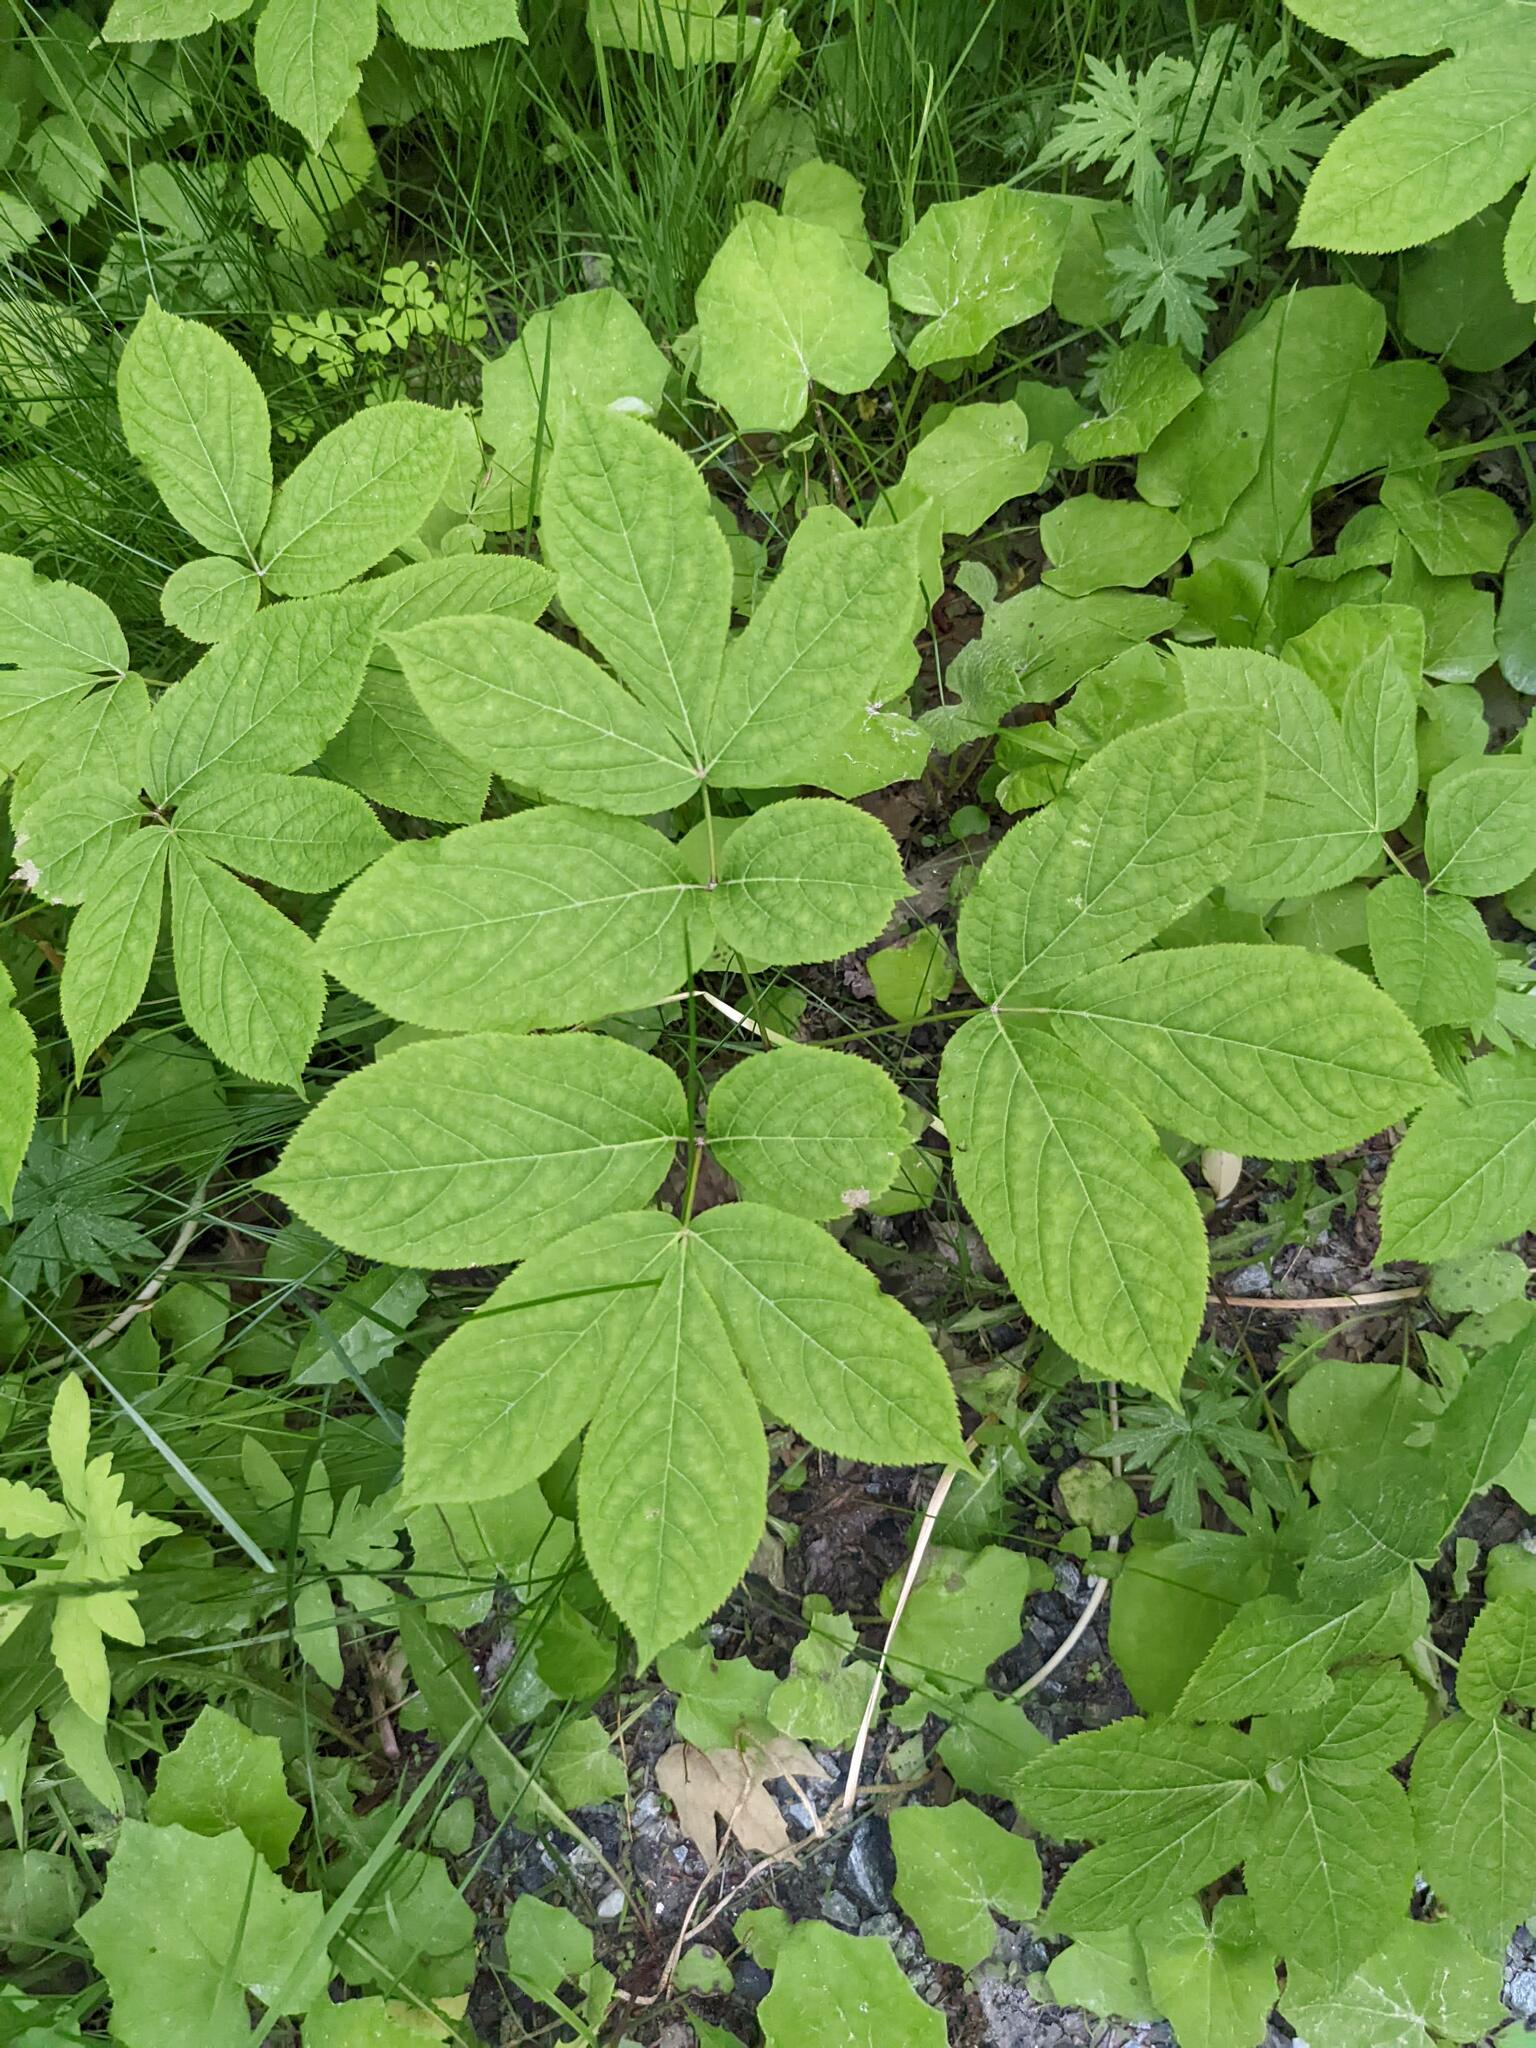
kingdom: Plantae
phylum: Tracheophyta
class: Magnoliopsida
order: Apiales
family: Araliaceae
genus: Aralia
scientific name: Aralia nudicaulis
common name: Wild sarsaparilla
